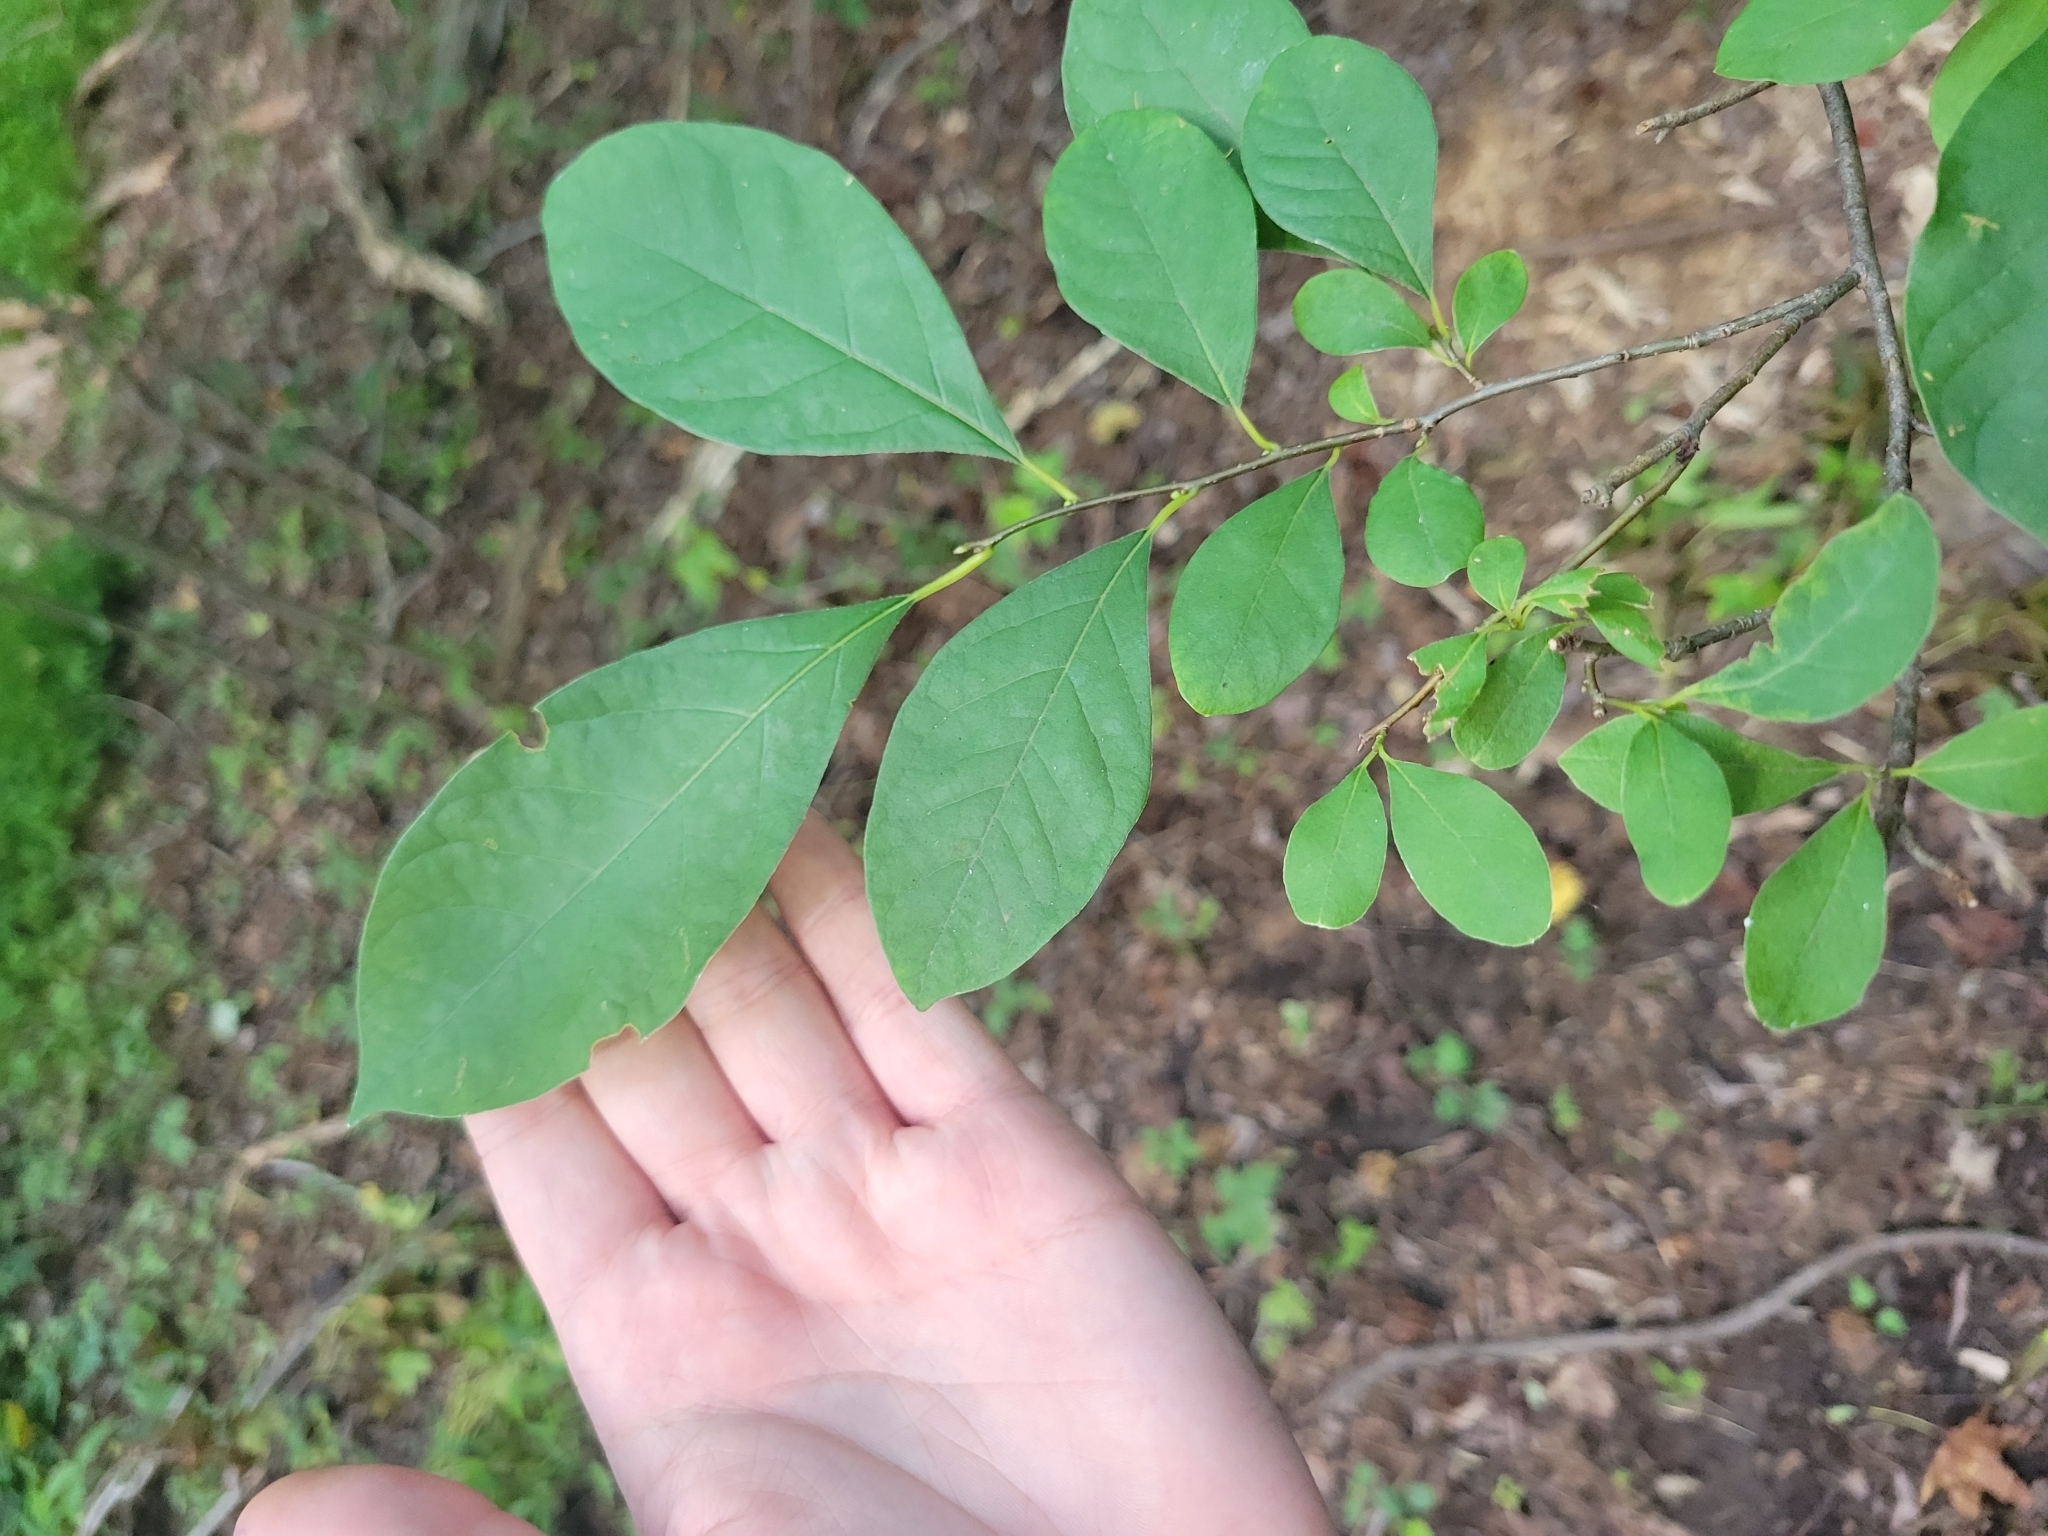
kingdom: Plantae
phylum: Tracheophyta
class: Magnoliopsida
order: Laurales
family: Lauraceae
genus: Lindera
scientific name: Lindera benzoin
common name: Spicebush
